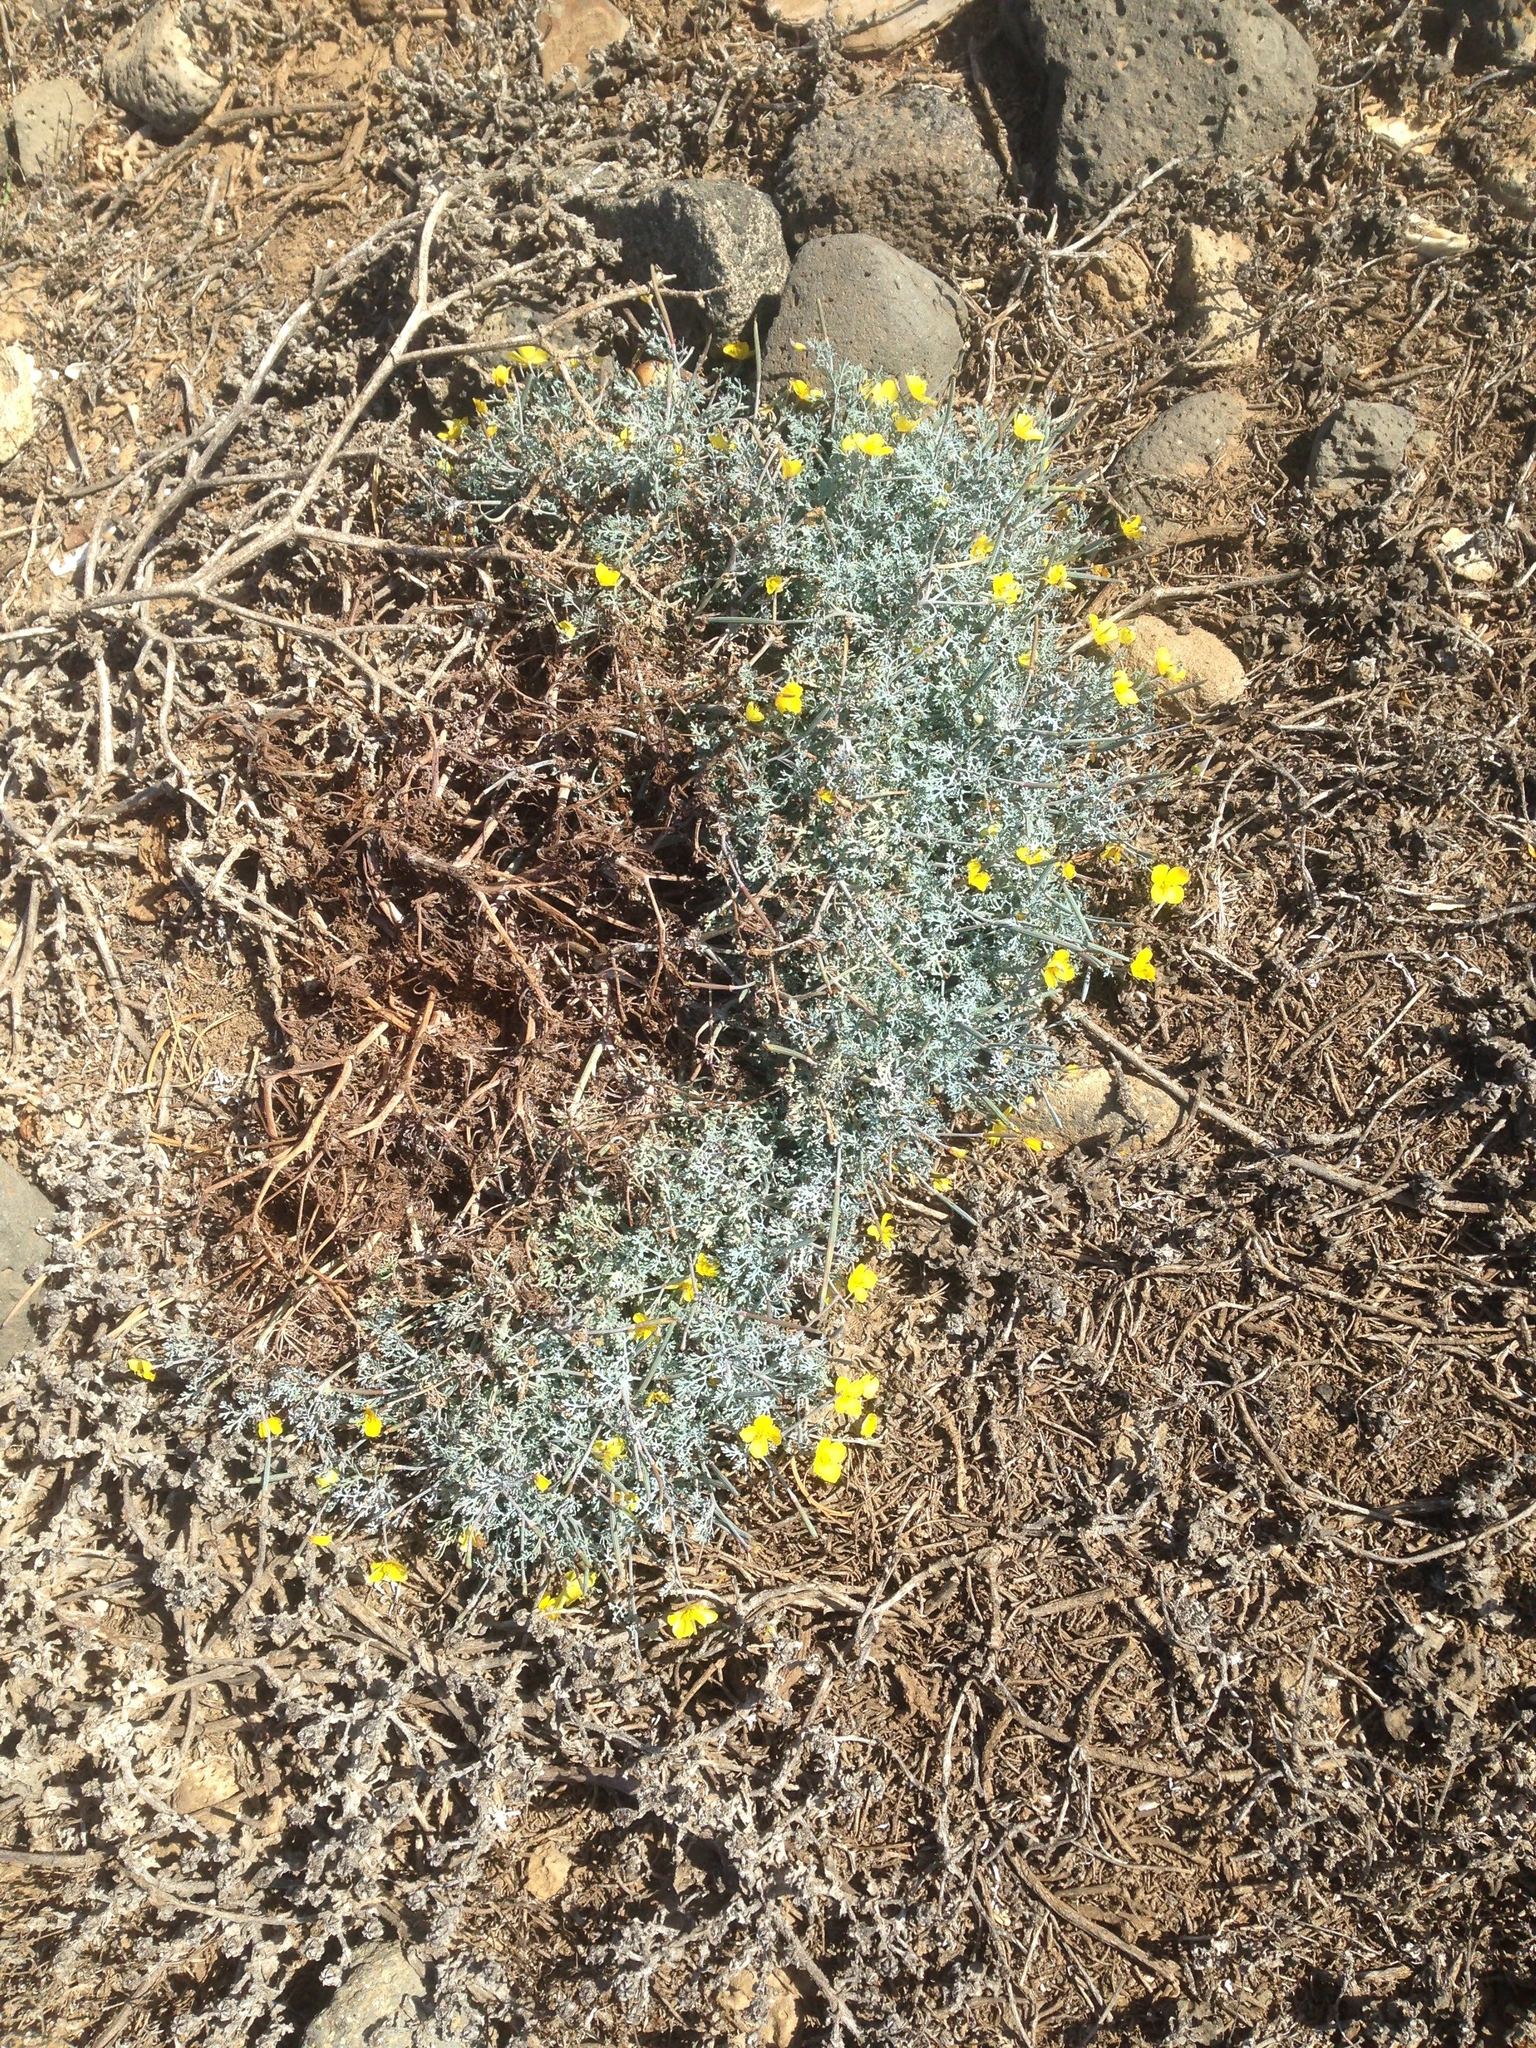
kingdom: Plantae
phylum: Tracheophyta
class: Magnoliopsida
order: Ranunculales
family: Papaveraceae
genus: Eschscholzia
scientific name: Eschscholzia ramosa
